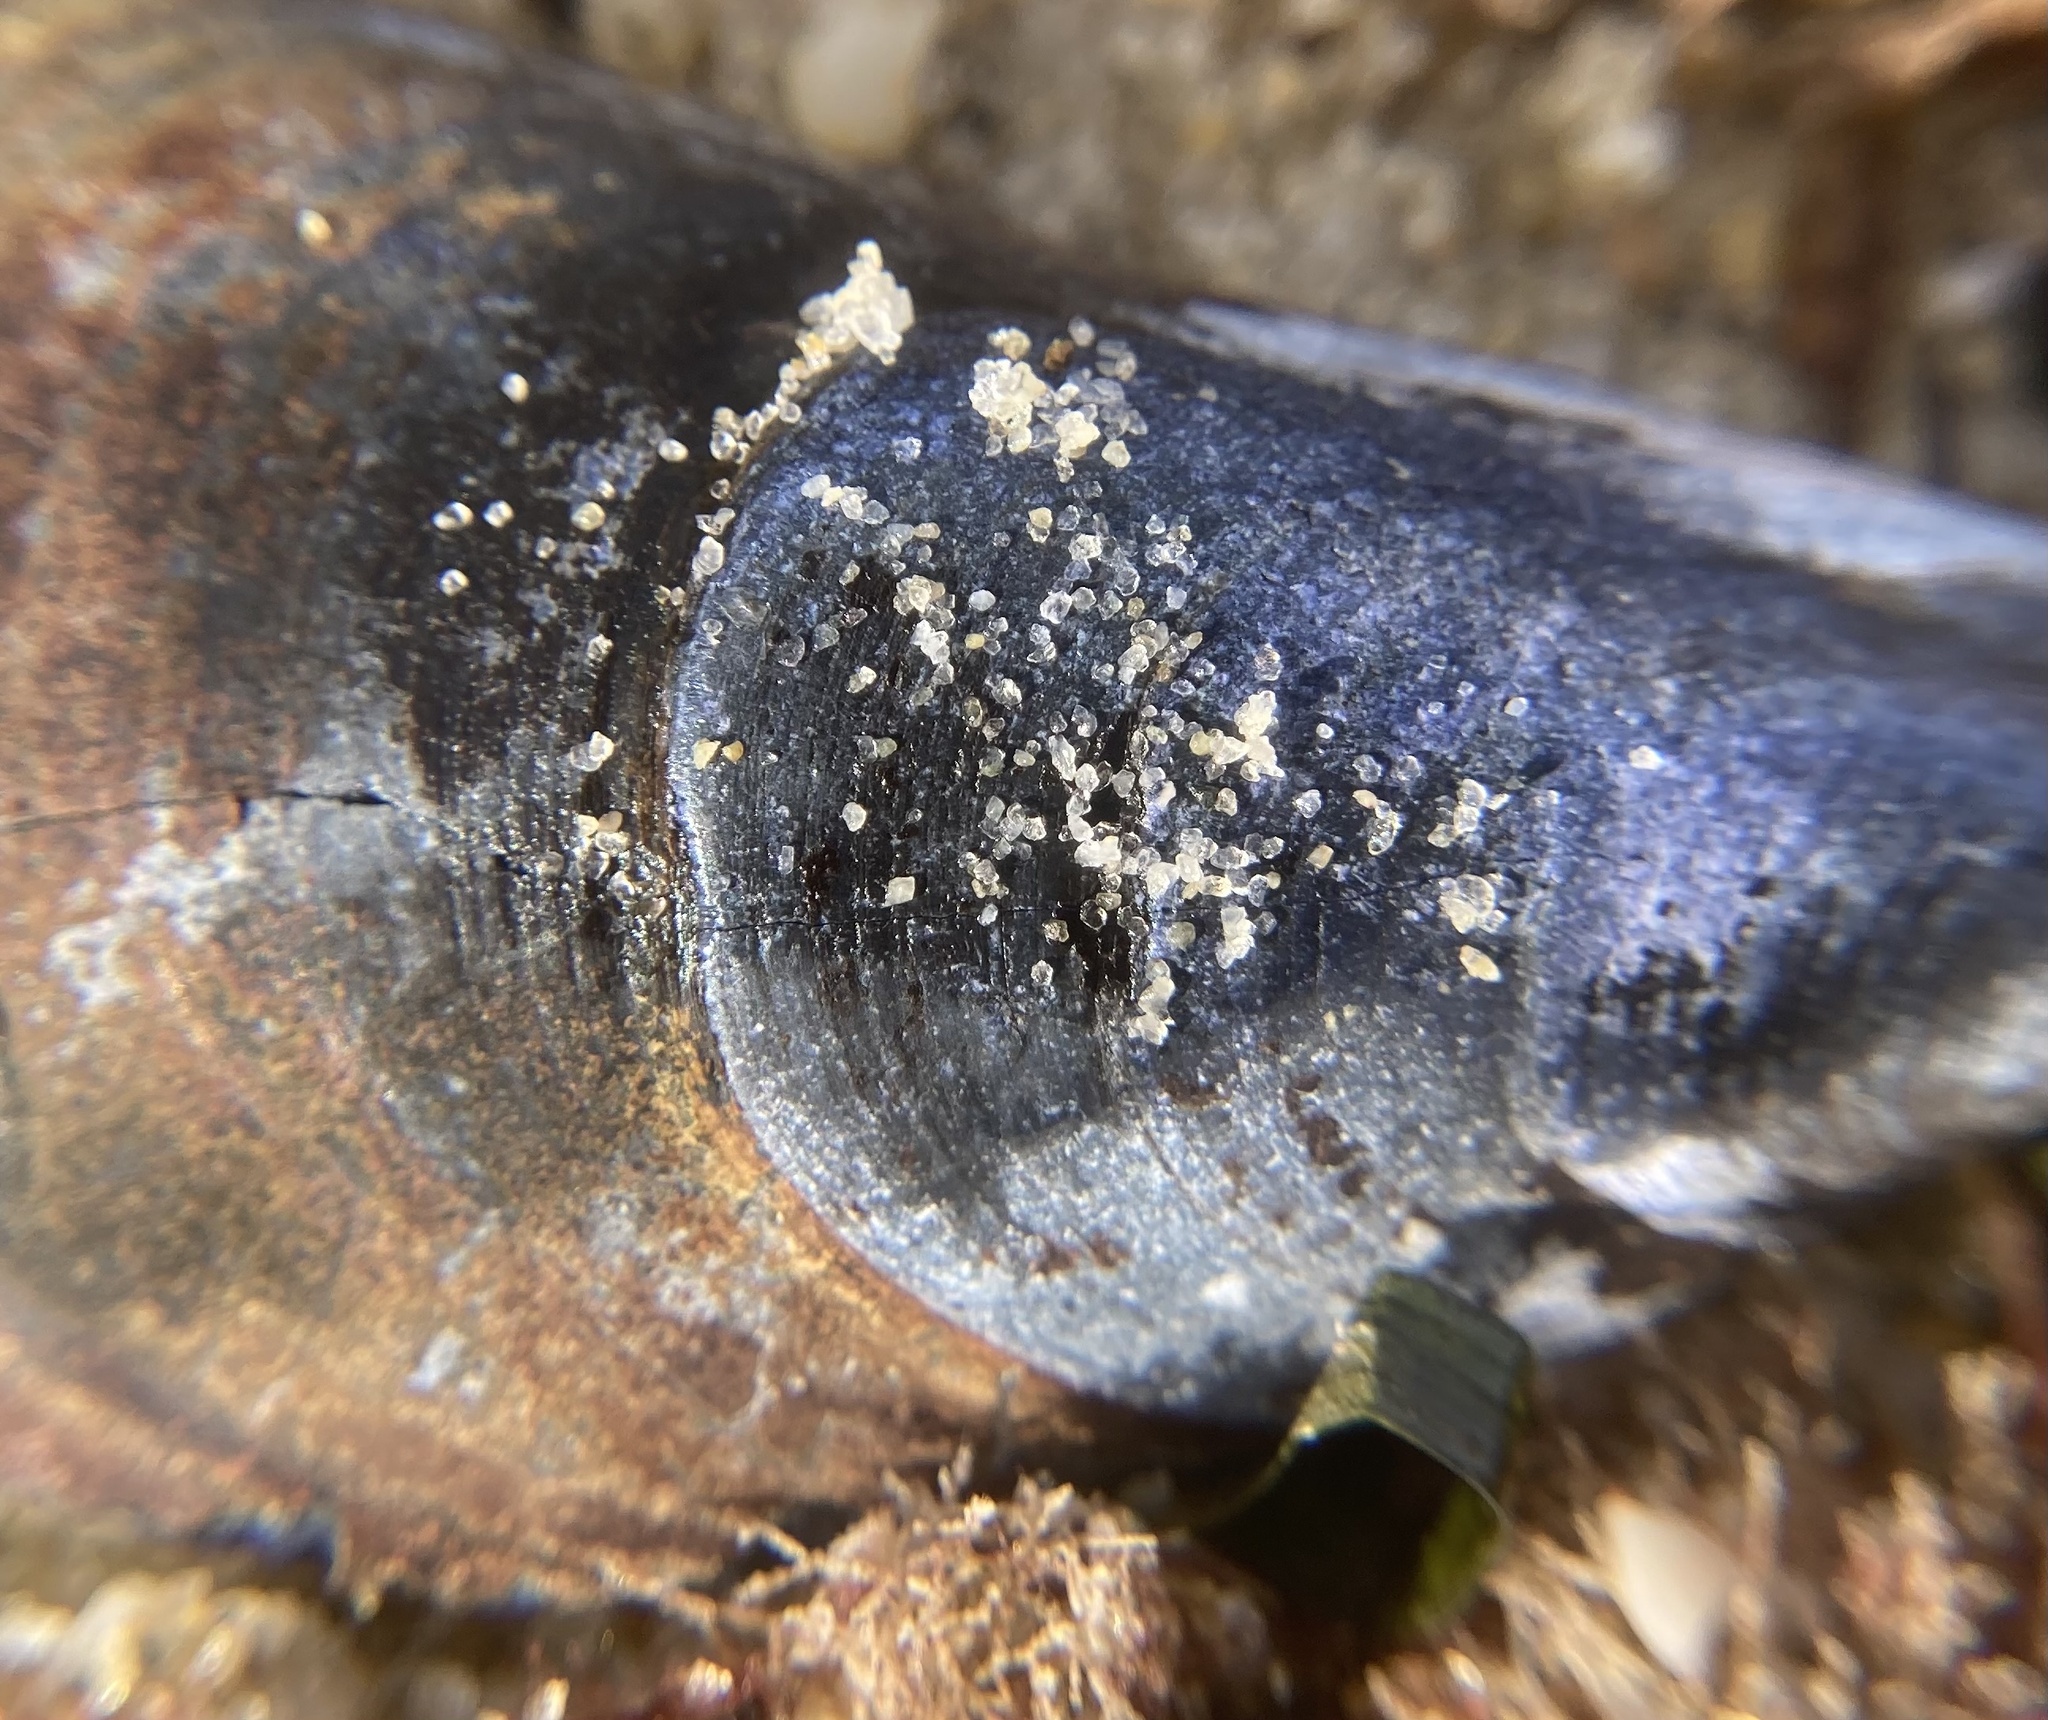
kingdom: Animalia
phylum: Mollusca
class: Bivalvia
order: Mytilida
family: Mytilidae
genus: Mytilus
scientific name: Mytilus edulis
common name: Blue mussel
